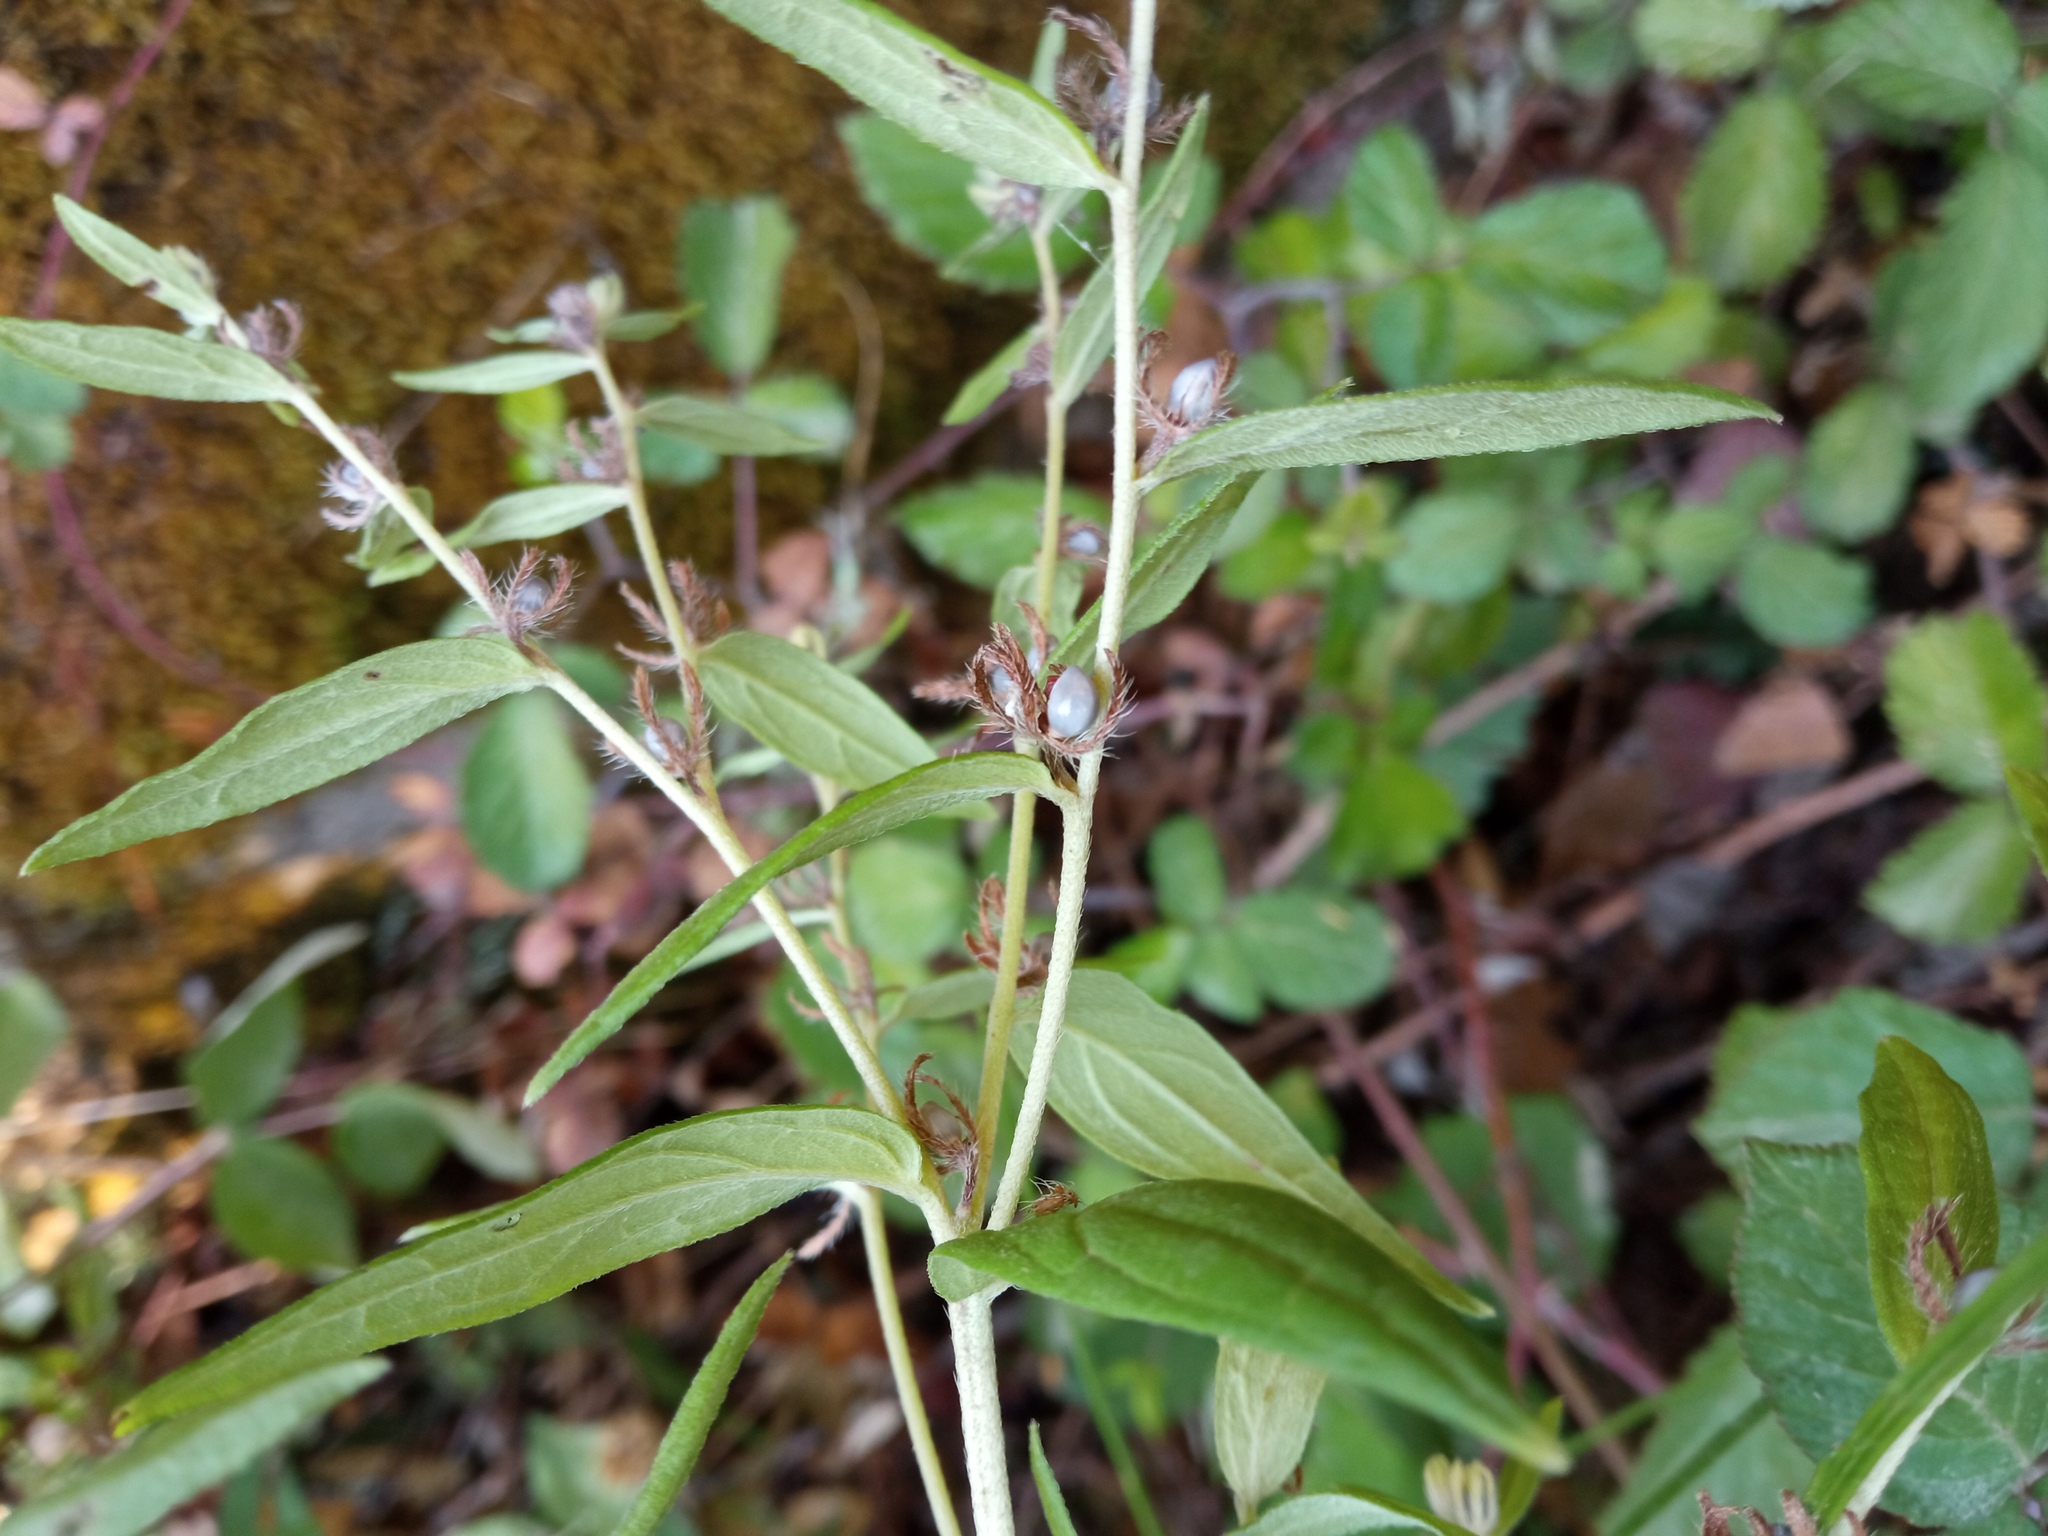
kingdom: Plantae
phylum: Tracheophyta
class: Magnoliopsida
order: Boraginales
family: Boraginaceae
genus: Lithospermum
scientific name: Lithospermum officinale
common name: Common gromwell
